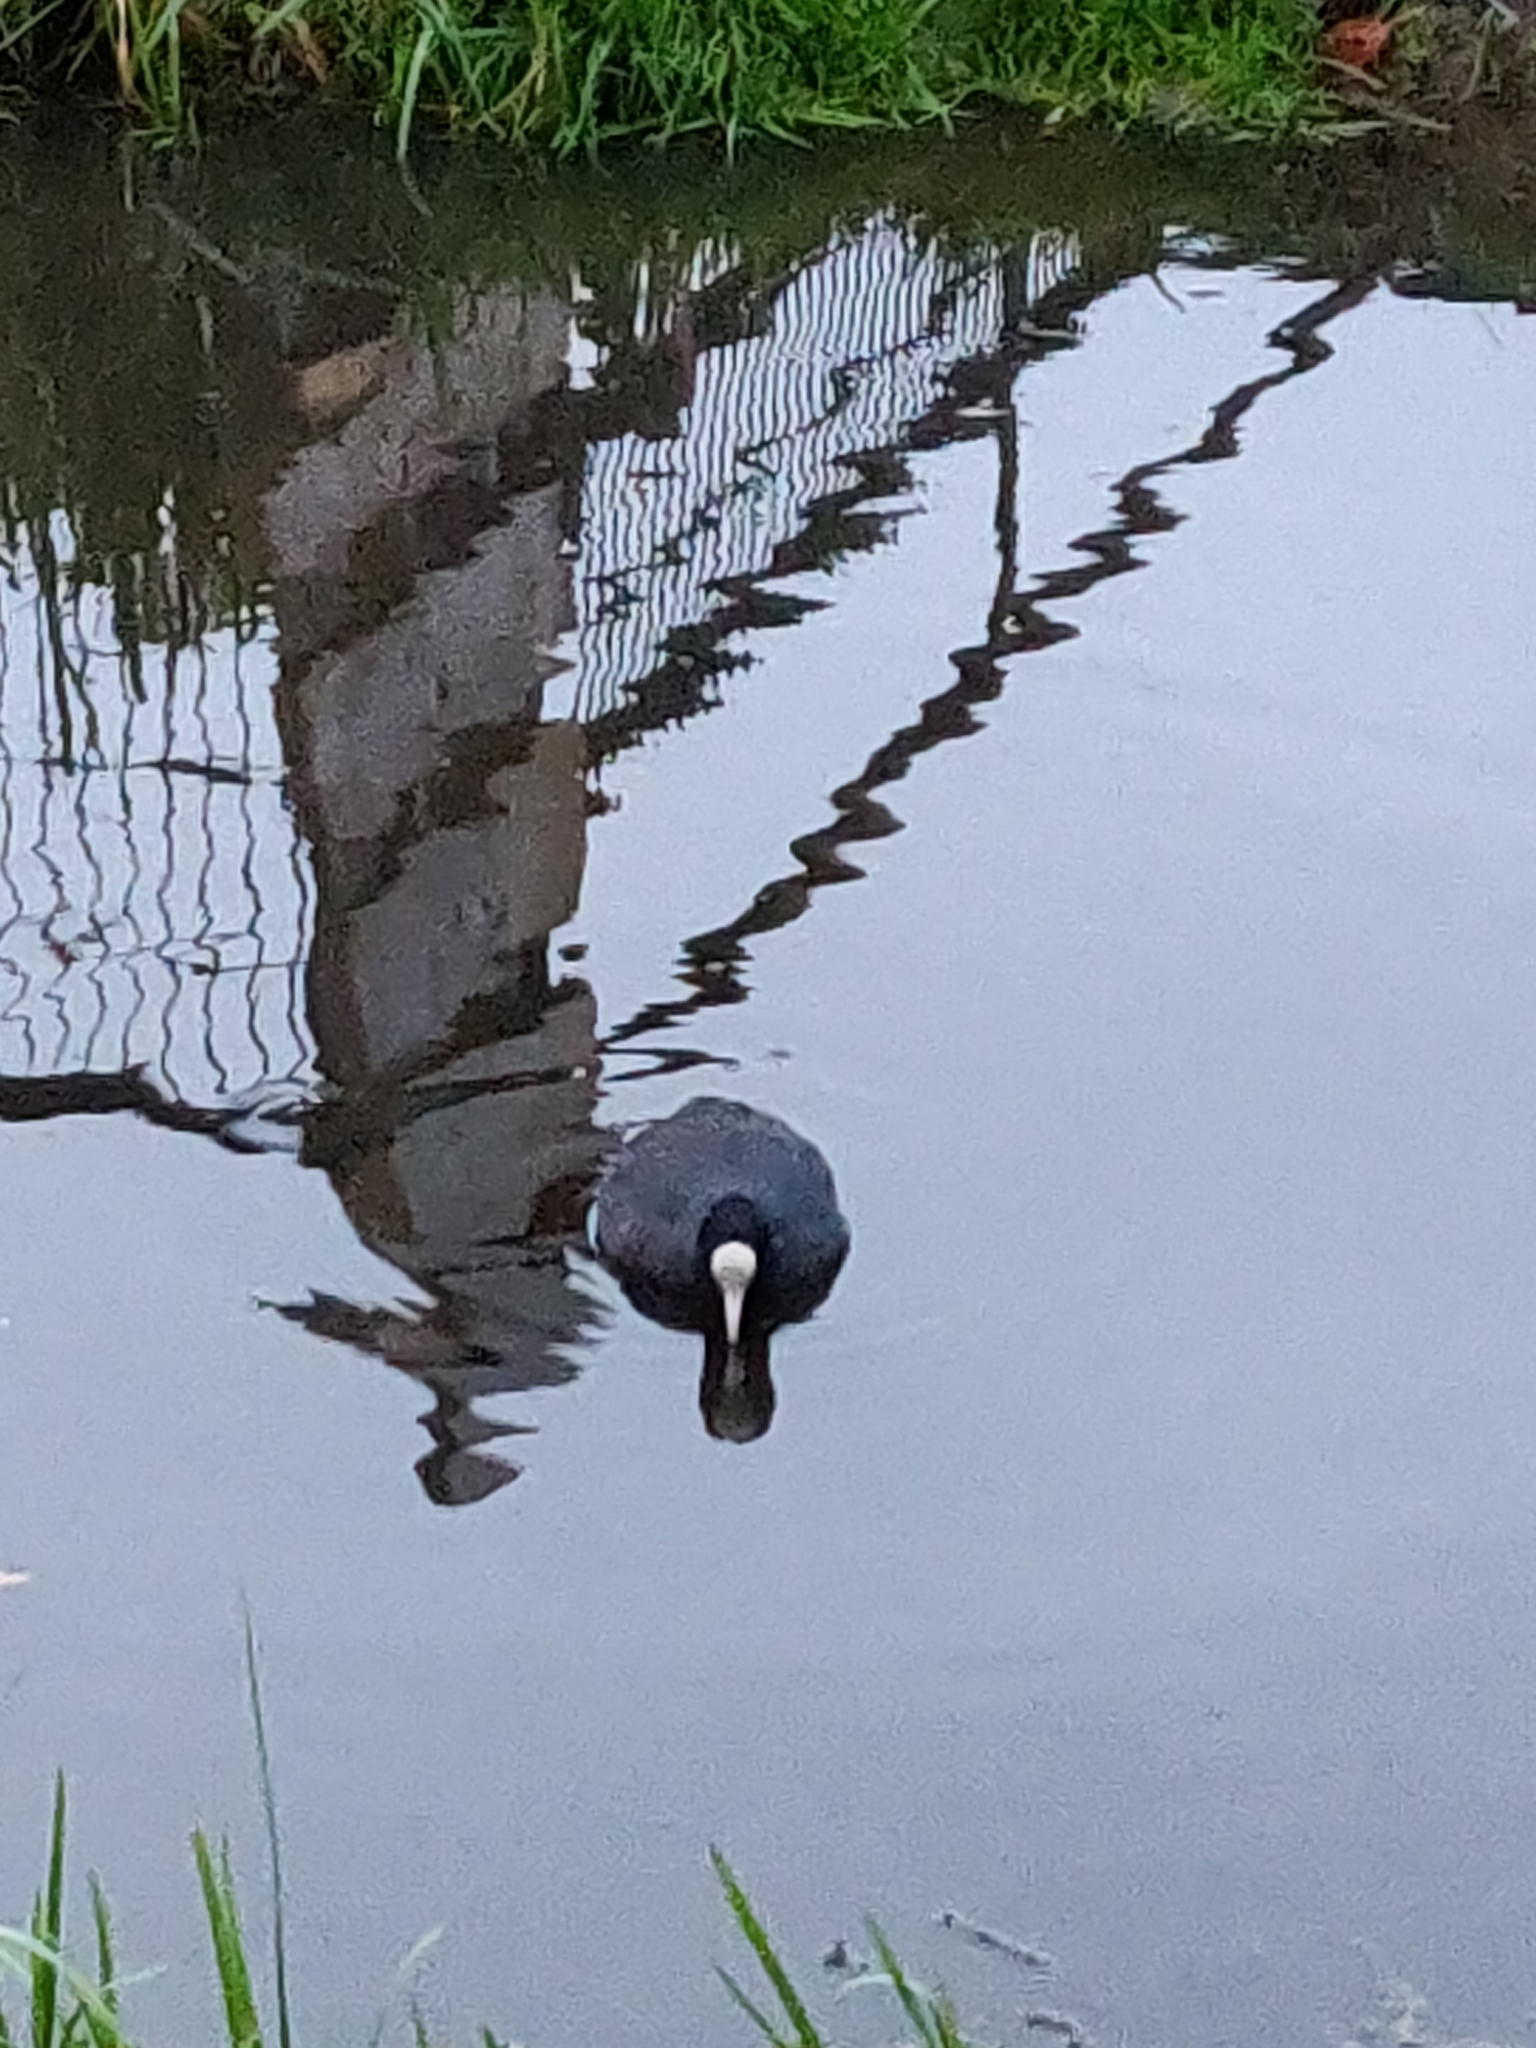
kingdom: Animalia
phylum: Chordata
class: Aves
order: Gruiformes
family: Rallidae
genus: Fulica
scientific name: Fulica atra
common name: Eurasian coot
